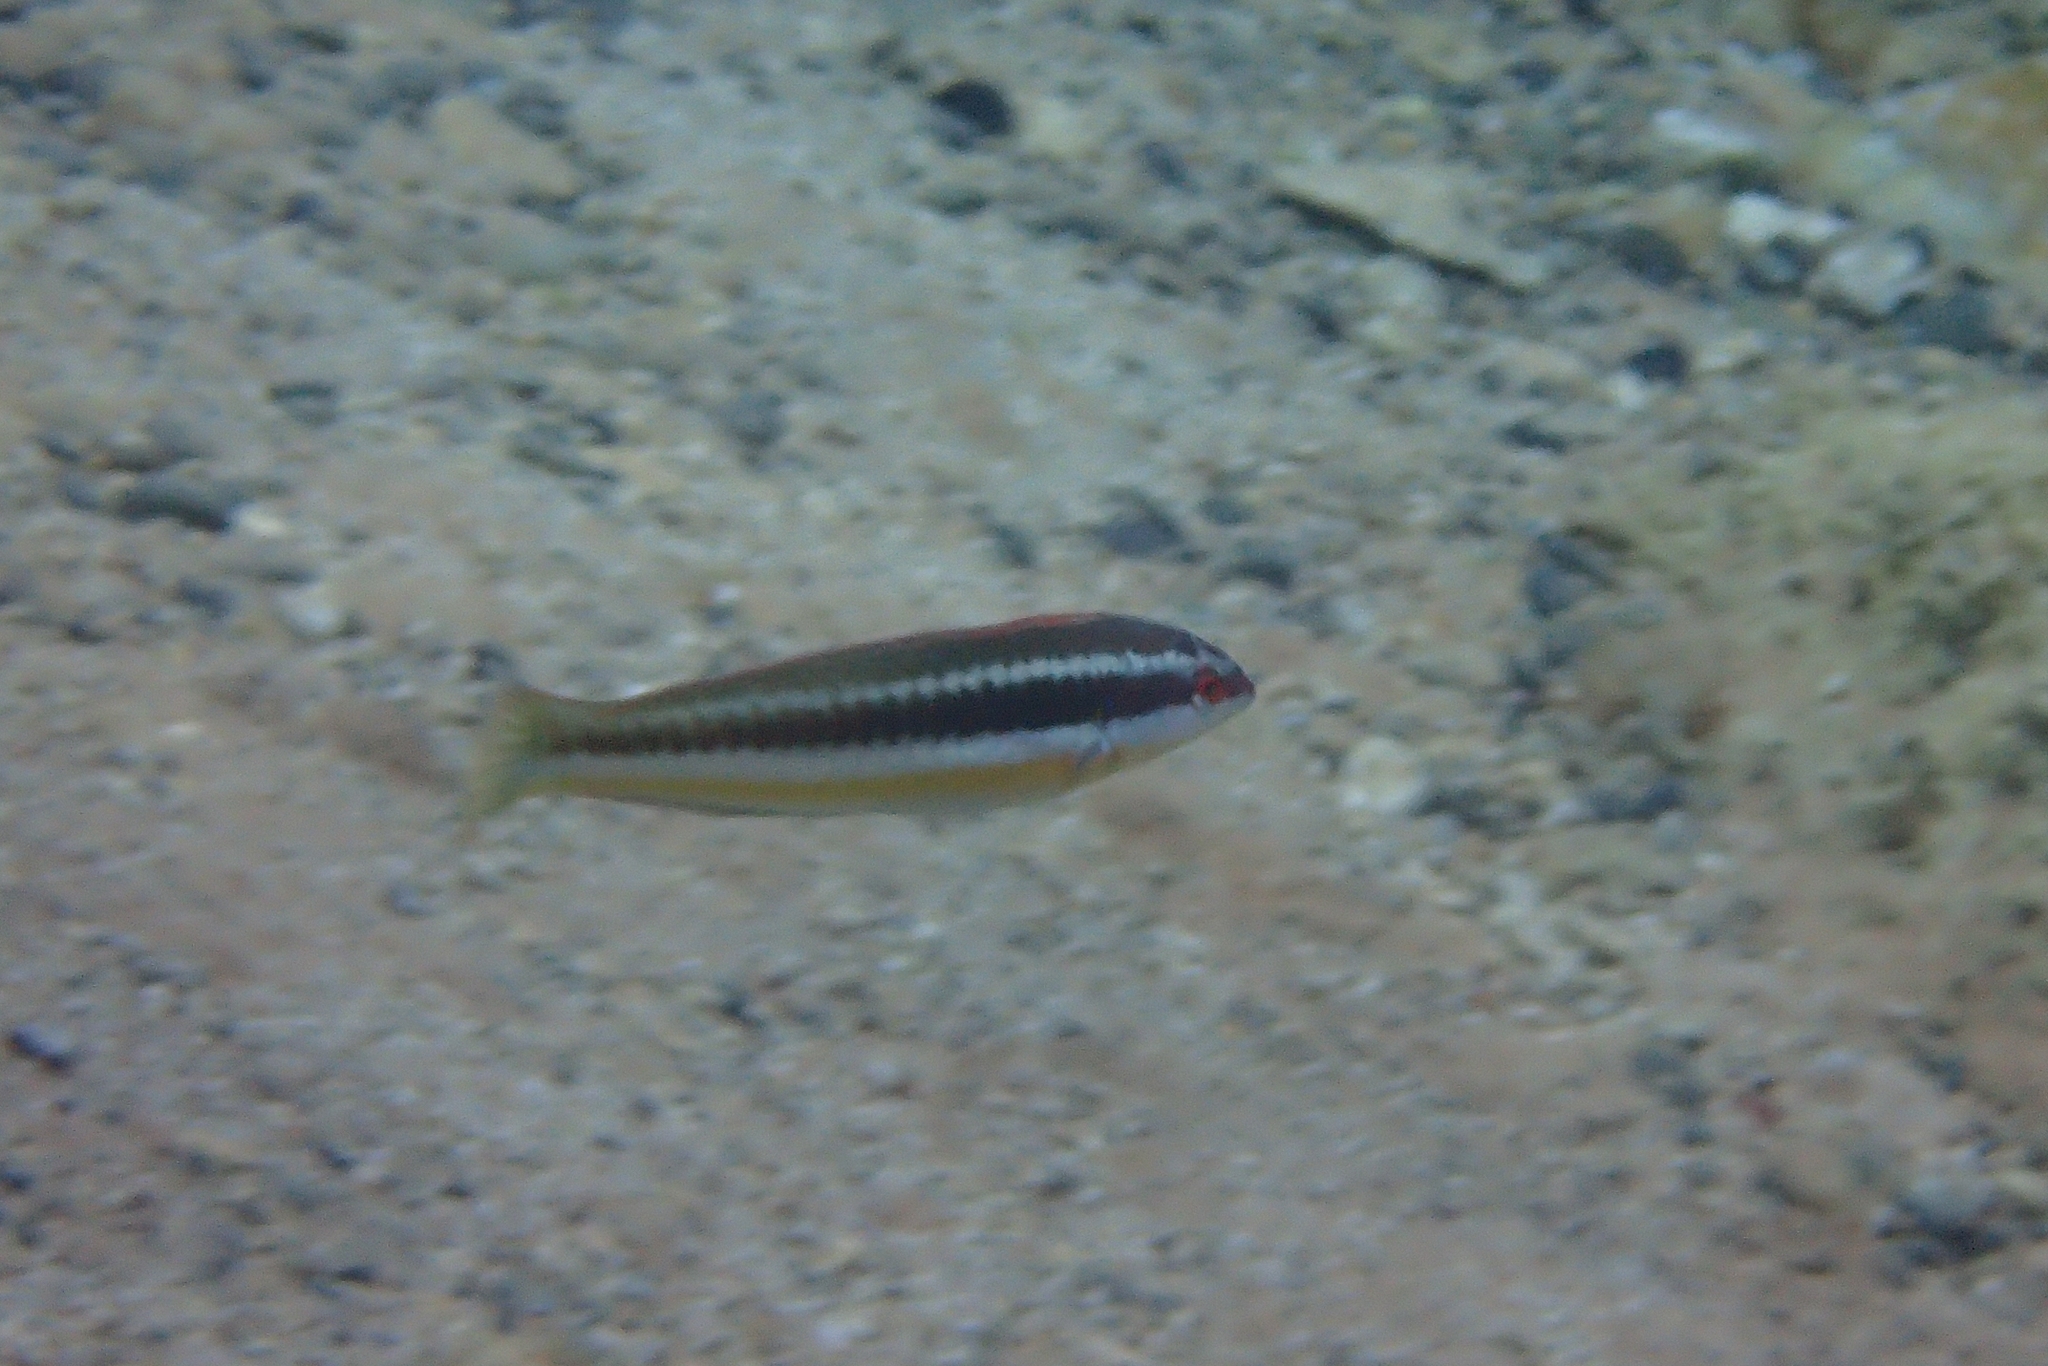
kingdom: Animalia
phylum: Chordata
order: Perciformes
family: Labridae
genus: Coris
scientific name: Coris julis
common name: Rainbow wrasse
